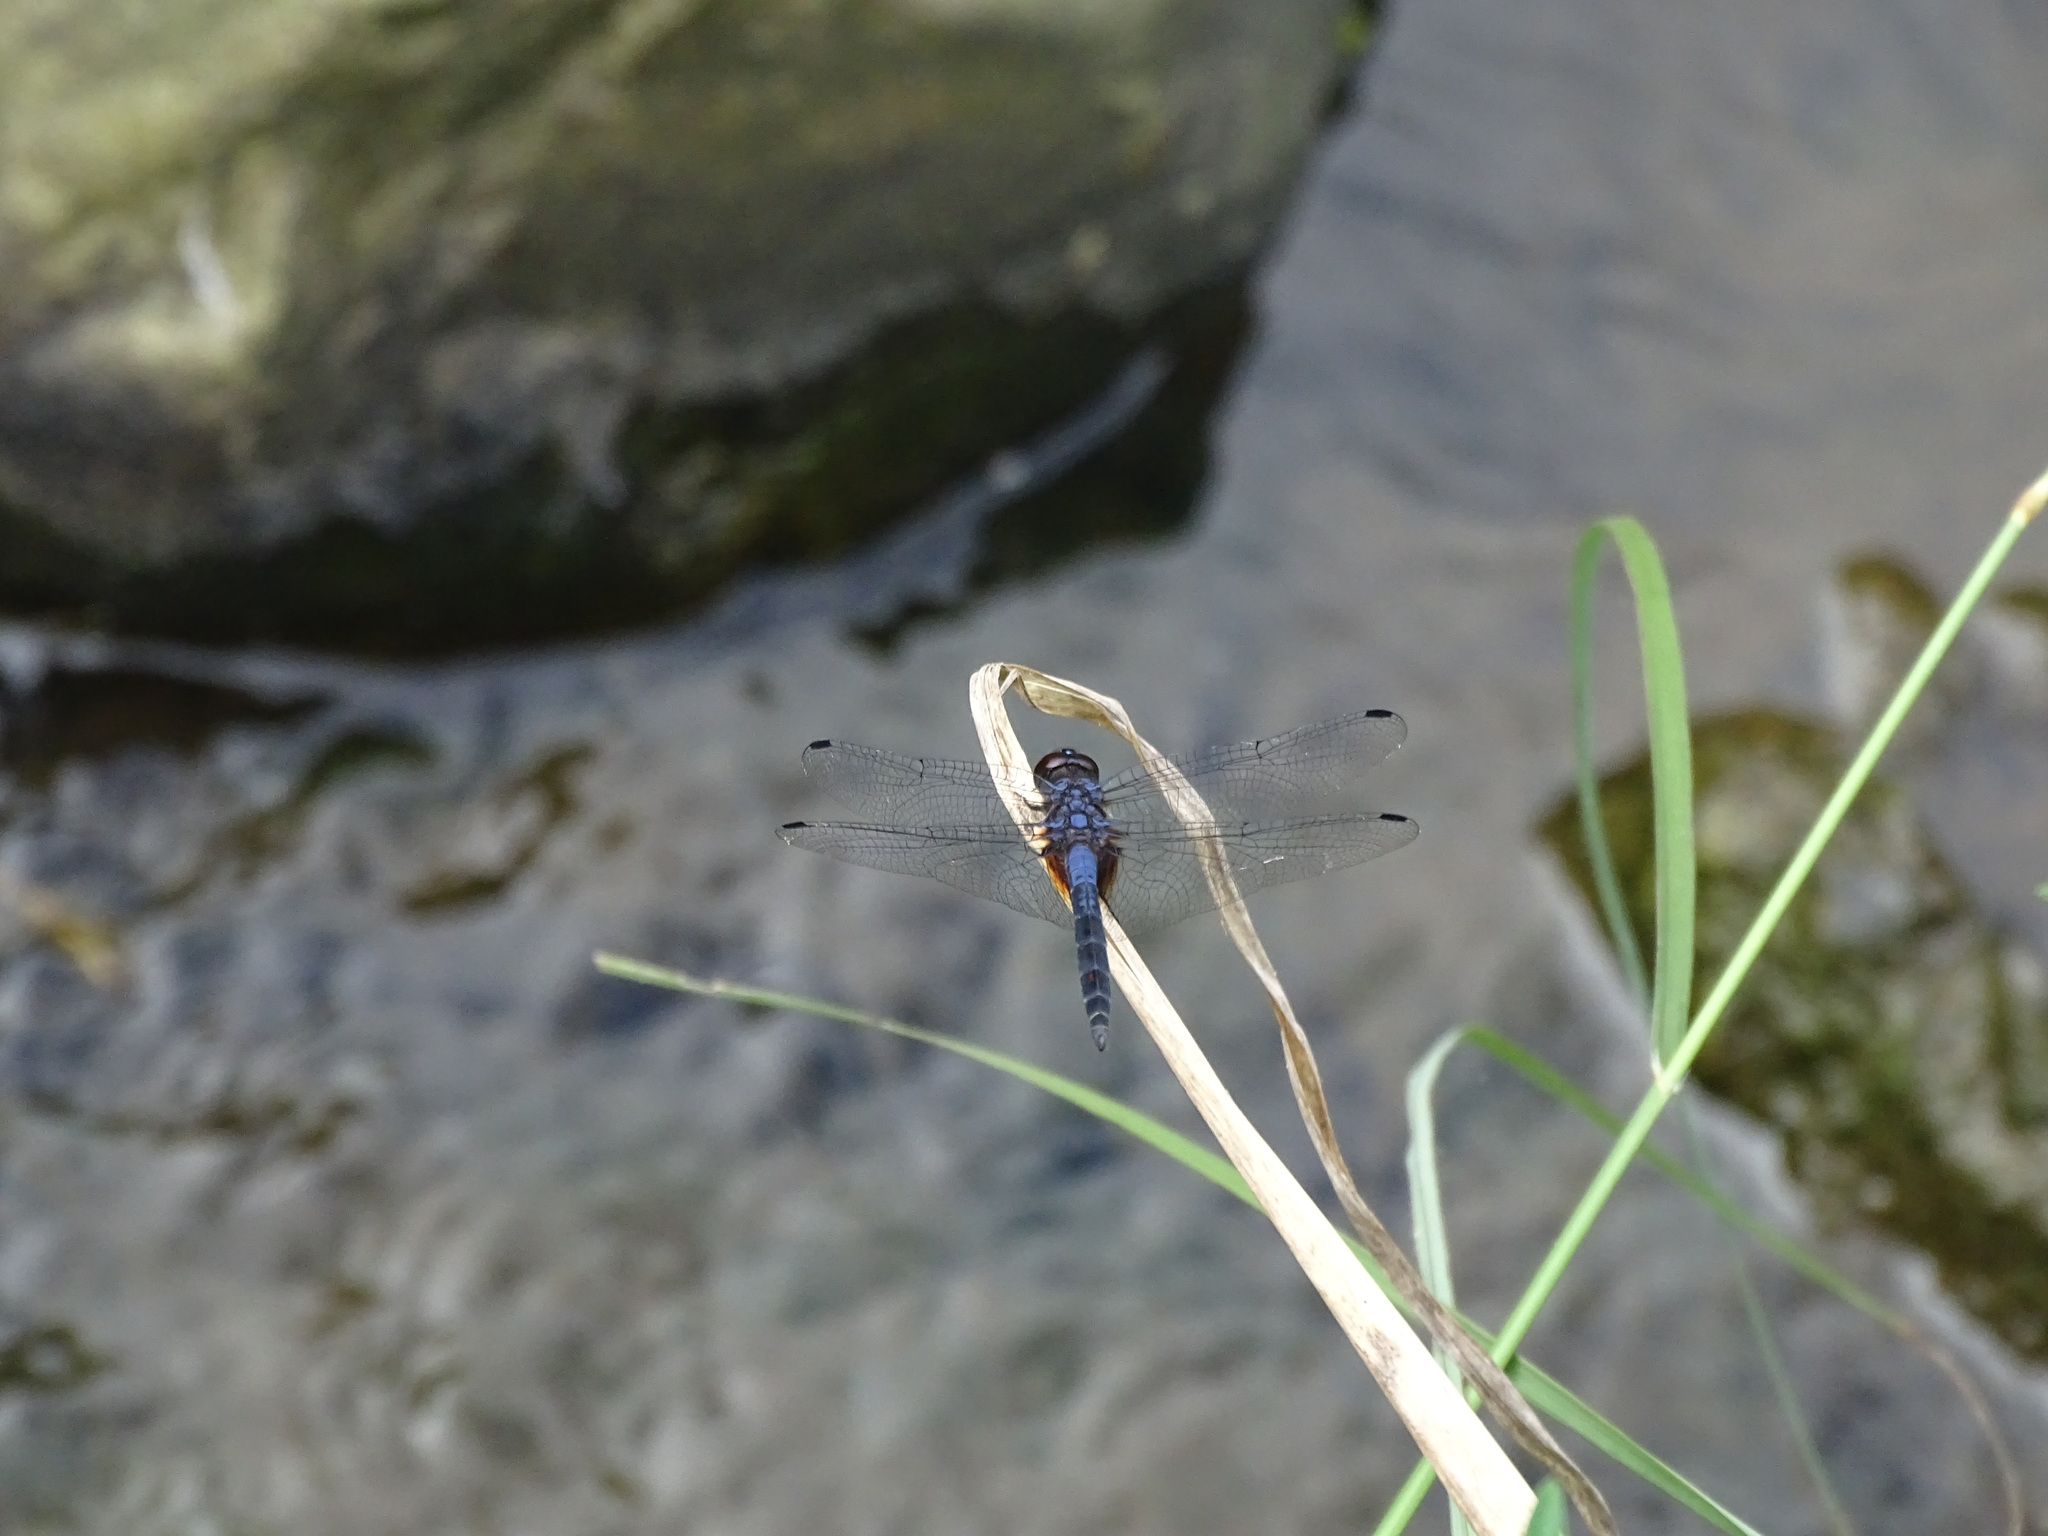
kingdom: Animalia
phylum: Arthropoda
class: Insecta
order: Odonata
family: Libellulidae
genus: Trithemis
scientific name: Trithemis festiva
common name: Indigo dropwing
